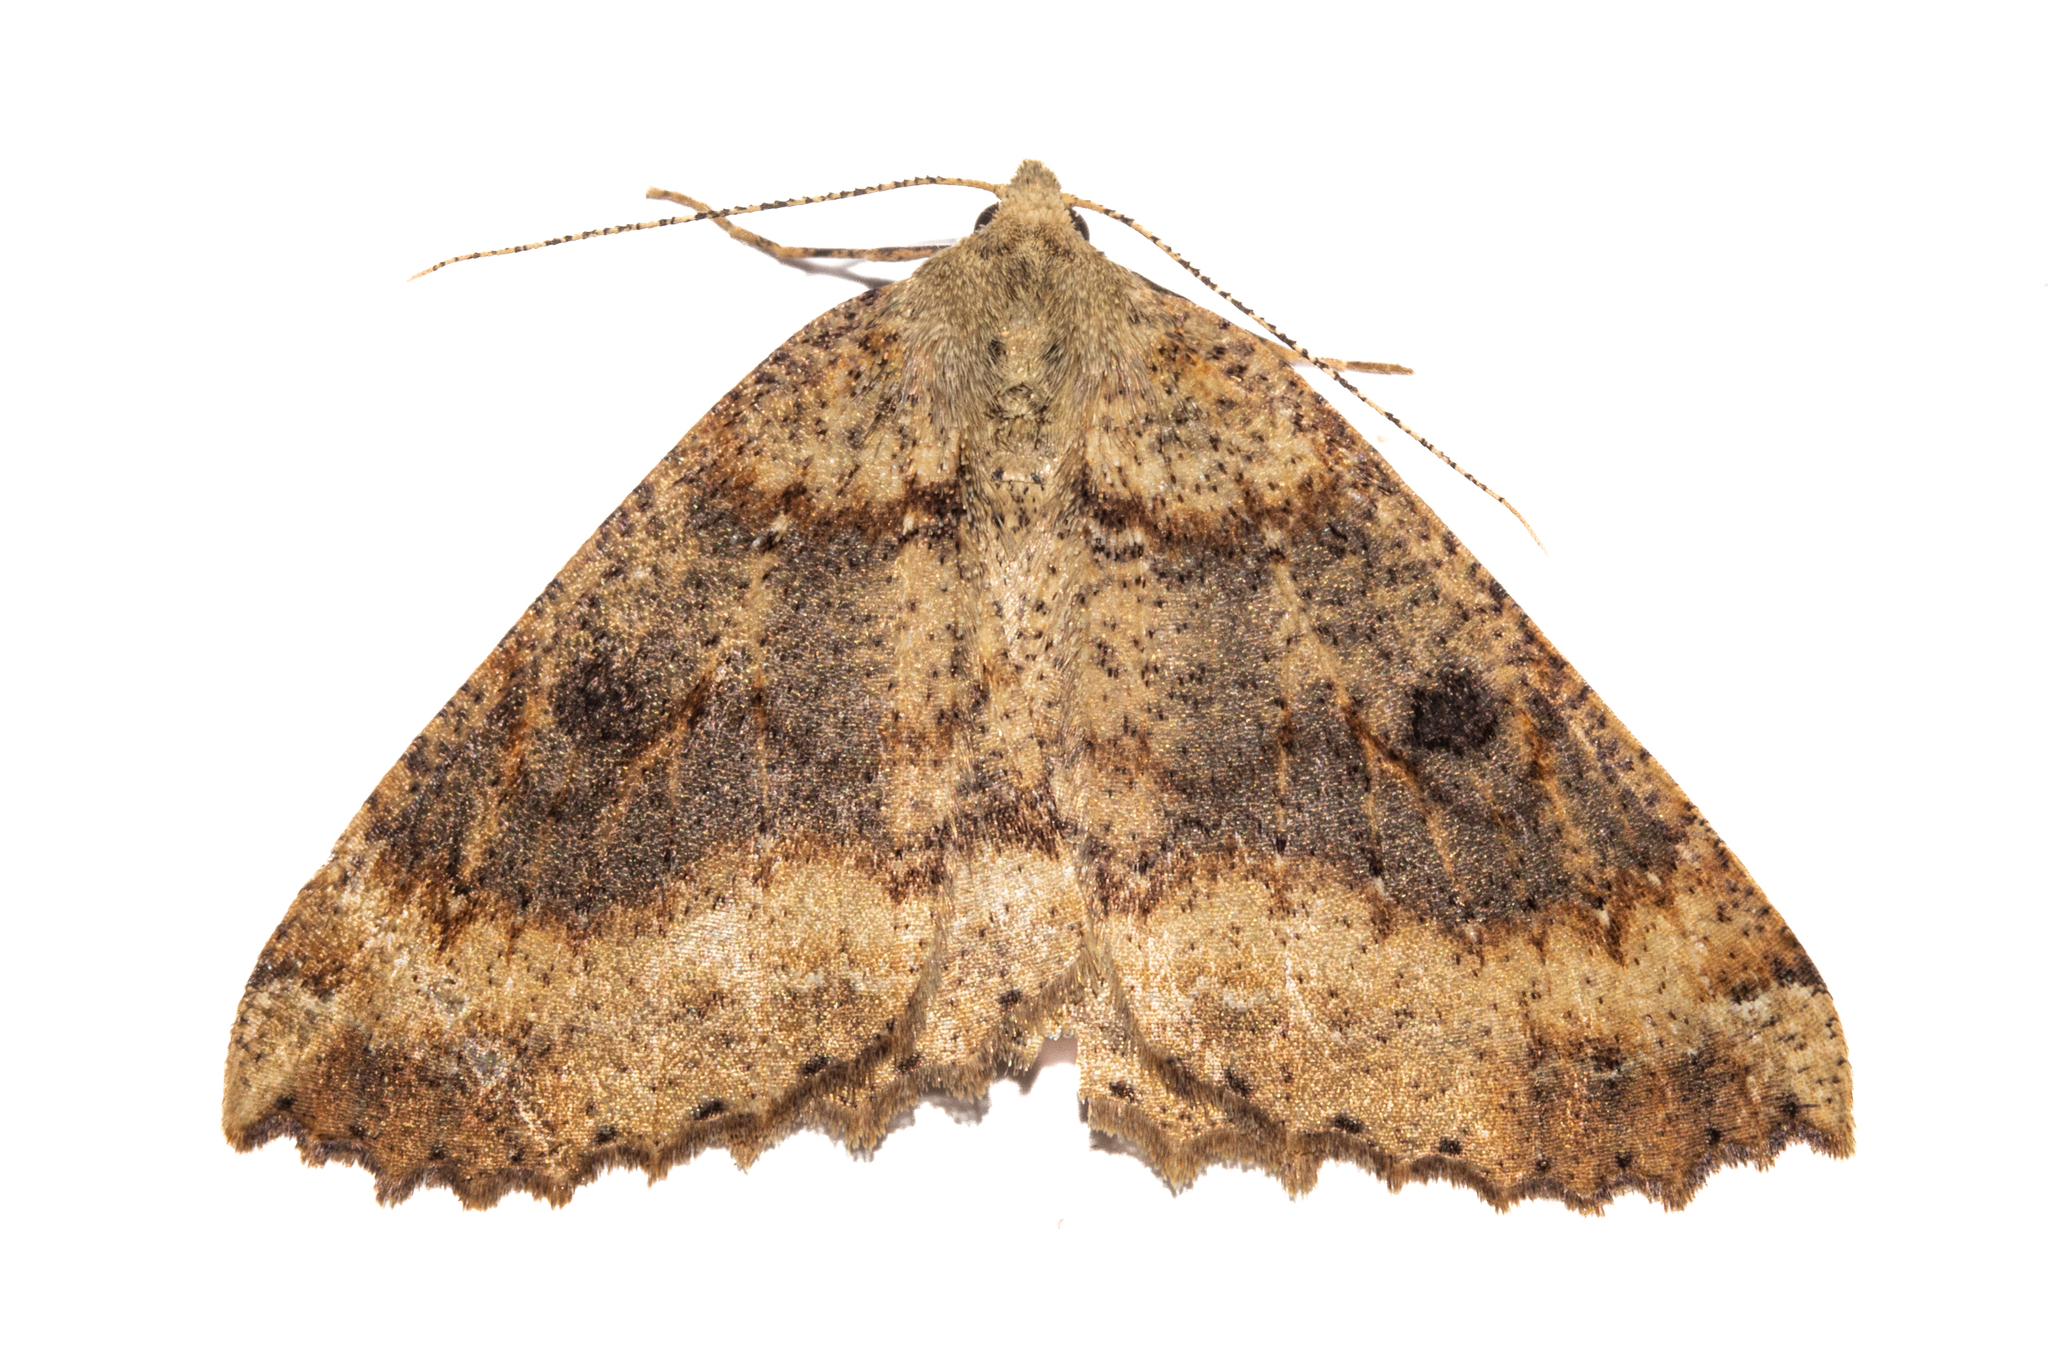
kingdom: Animalia
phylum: Arthropoda
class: Insecta
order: Lepidoptera
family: Geometridae
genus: Cleora
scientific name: Cleora scriptaria
